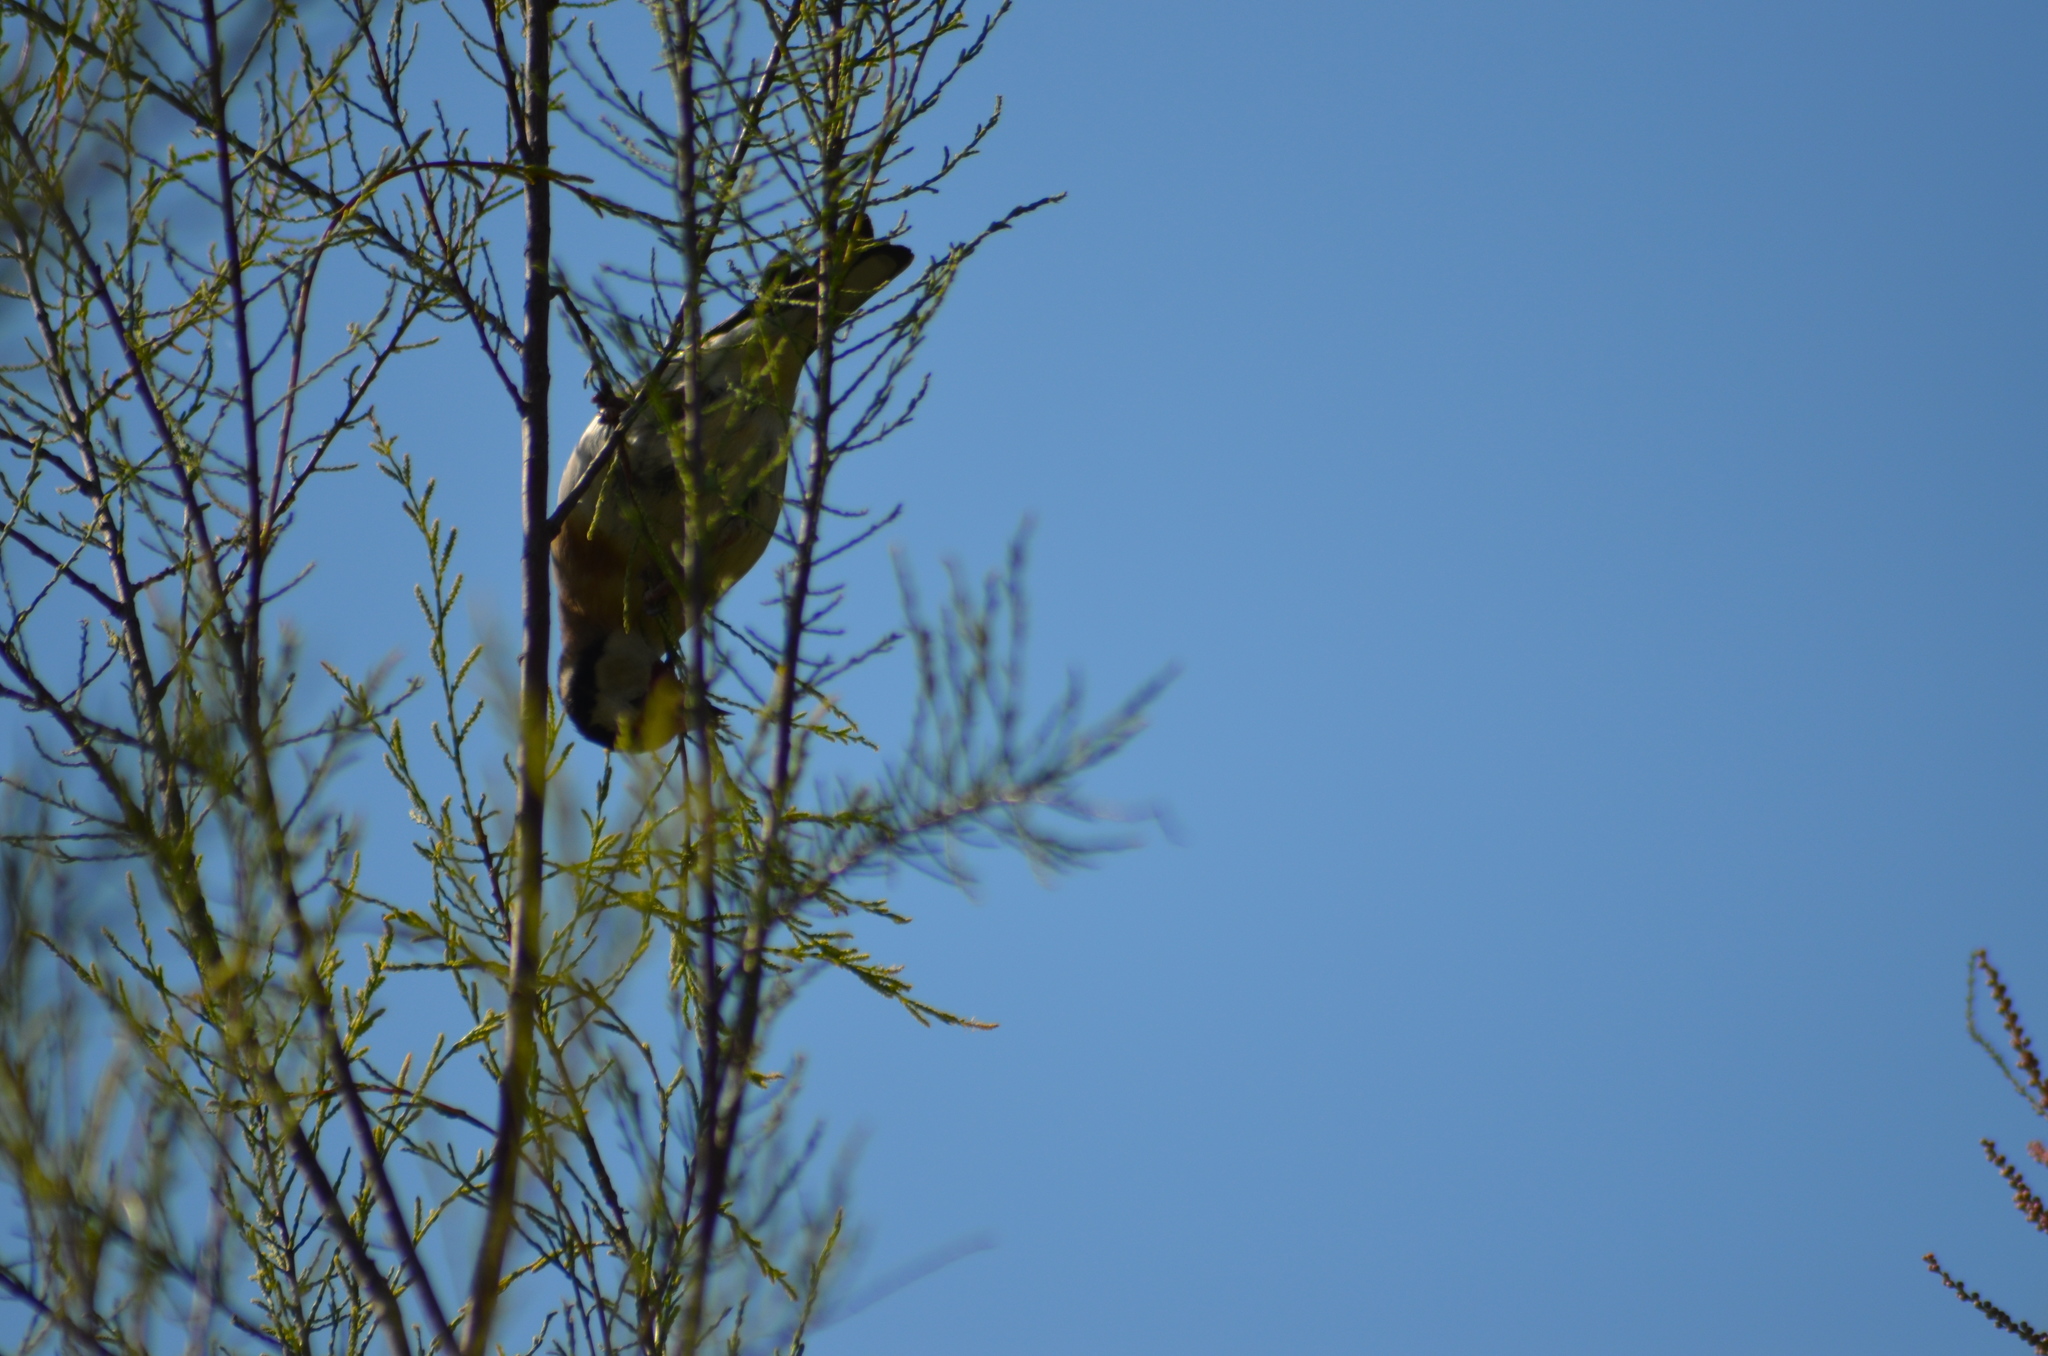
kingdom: Animalia
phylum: Chordata
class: Aves
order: Passeriformes
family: Fringillidae
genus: Carduelis
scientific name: Carduelis carduelis
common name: European goldfinch
